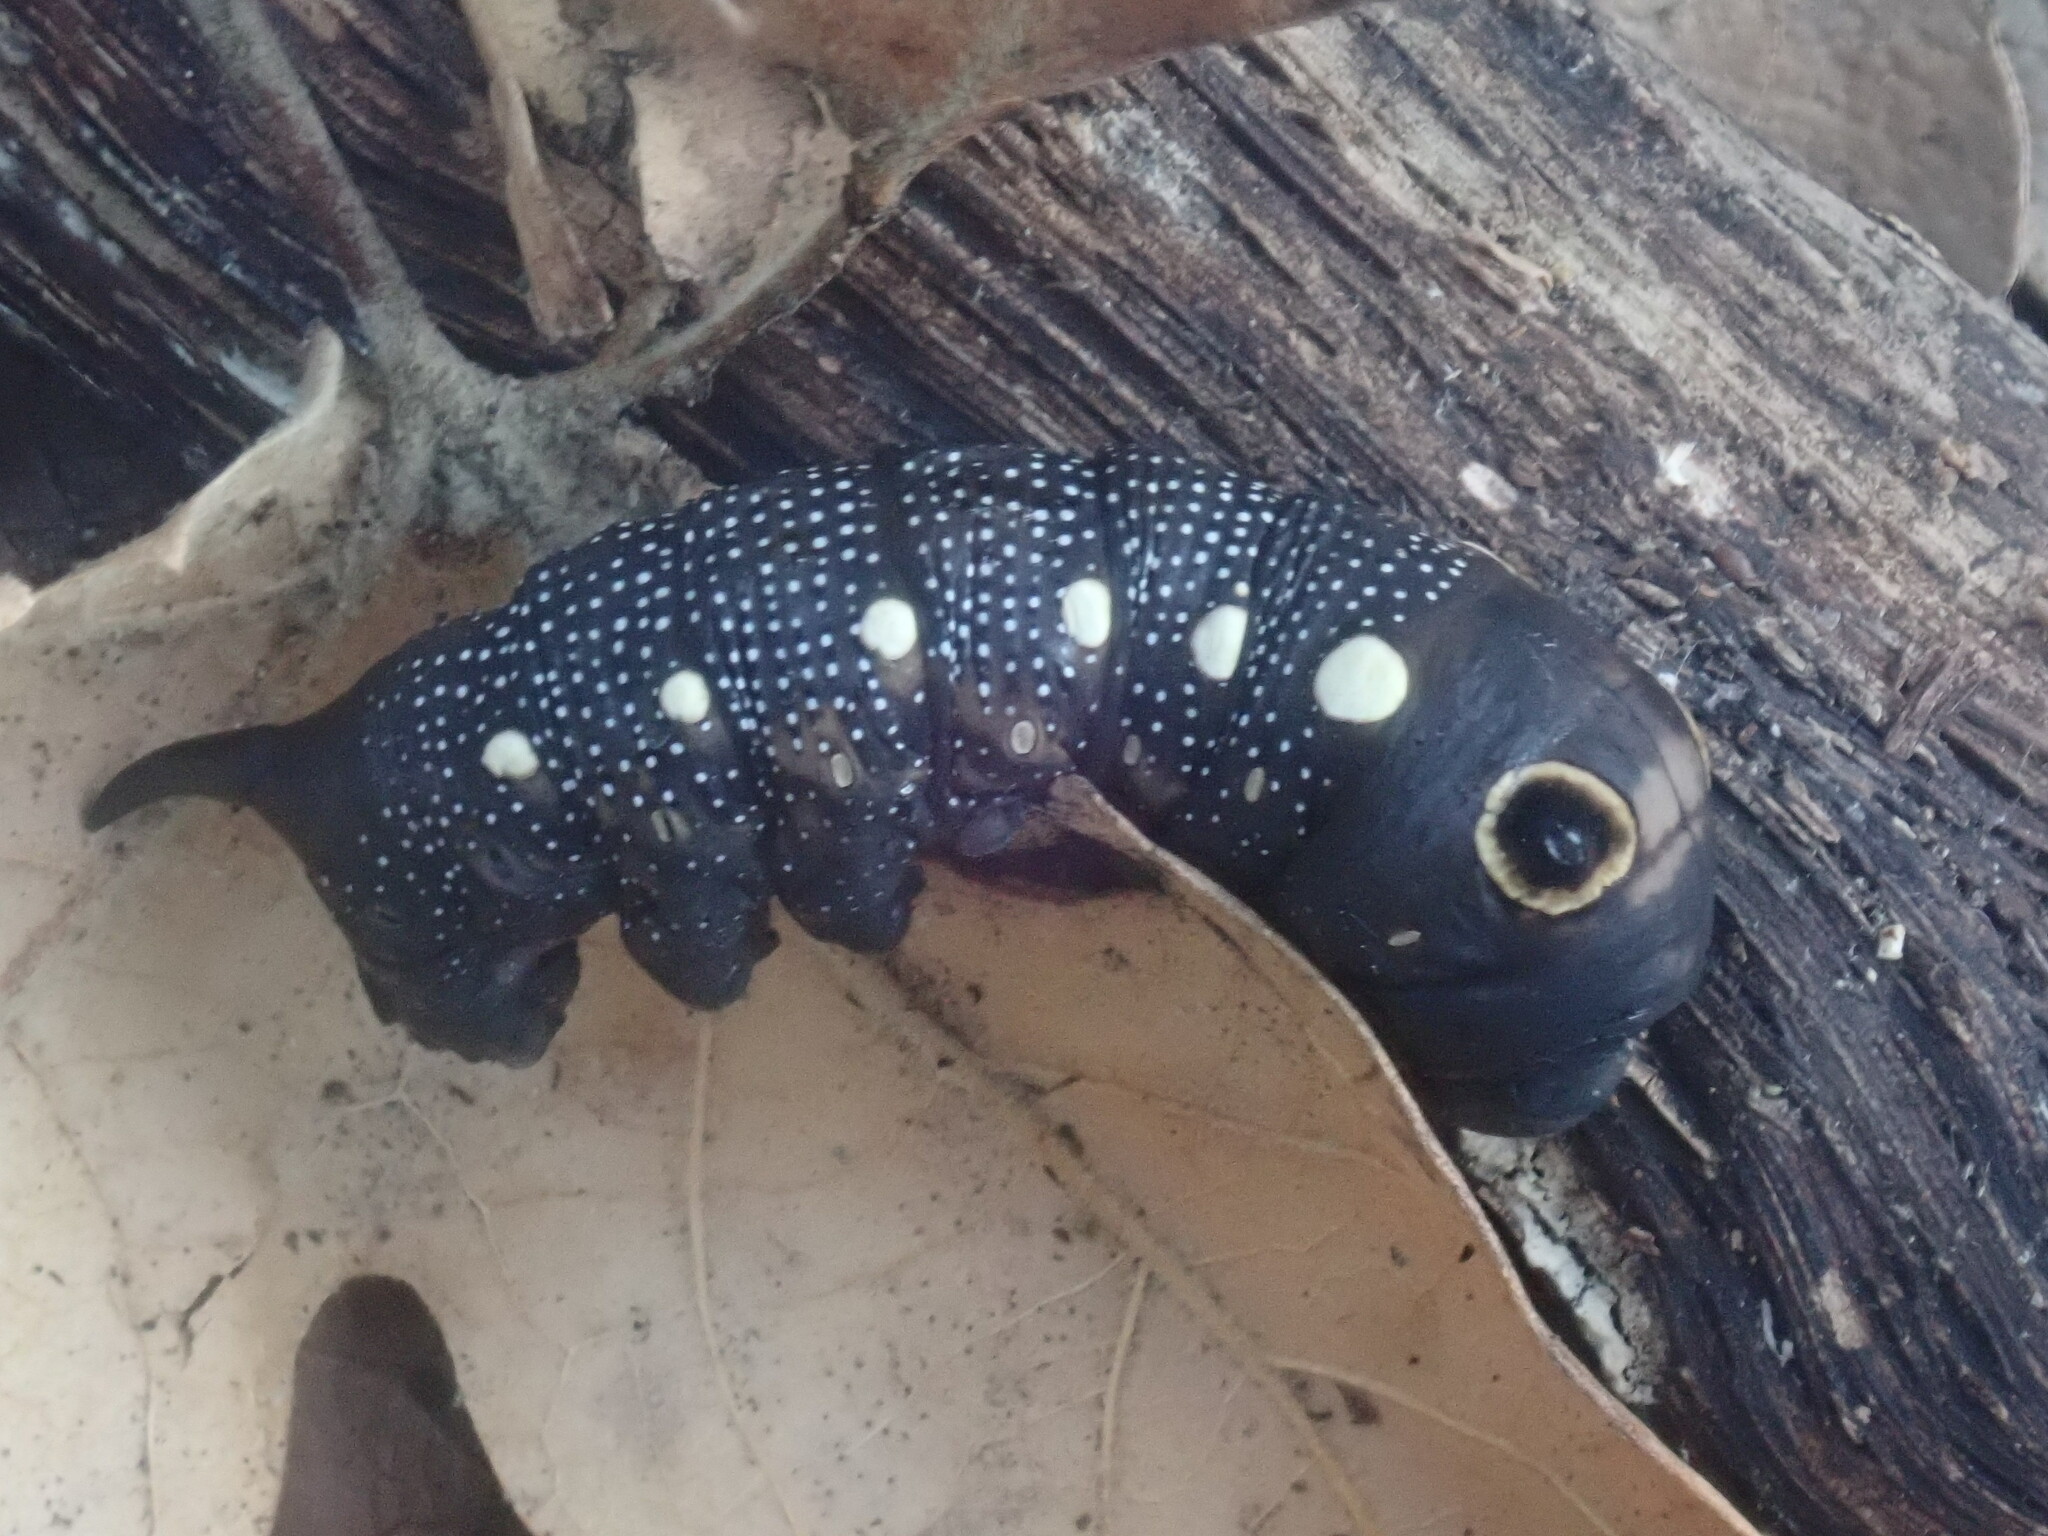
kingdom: Animalia
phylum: Arthropoda
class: Insecta
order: Lepidoptera
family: Sphingidae
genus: Xylophanes
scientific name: Xylophanes falco
